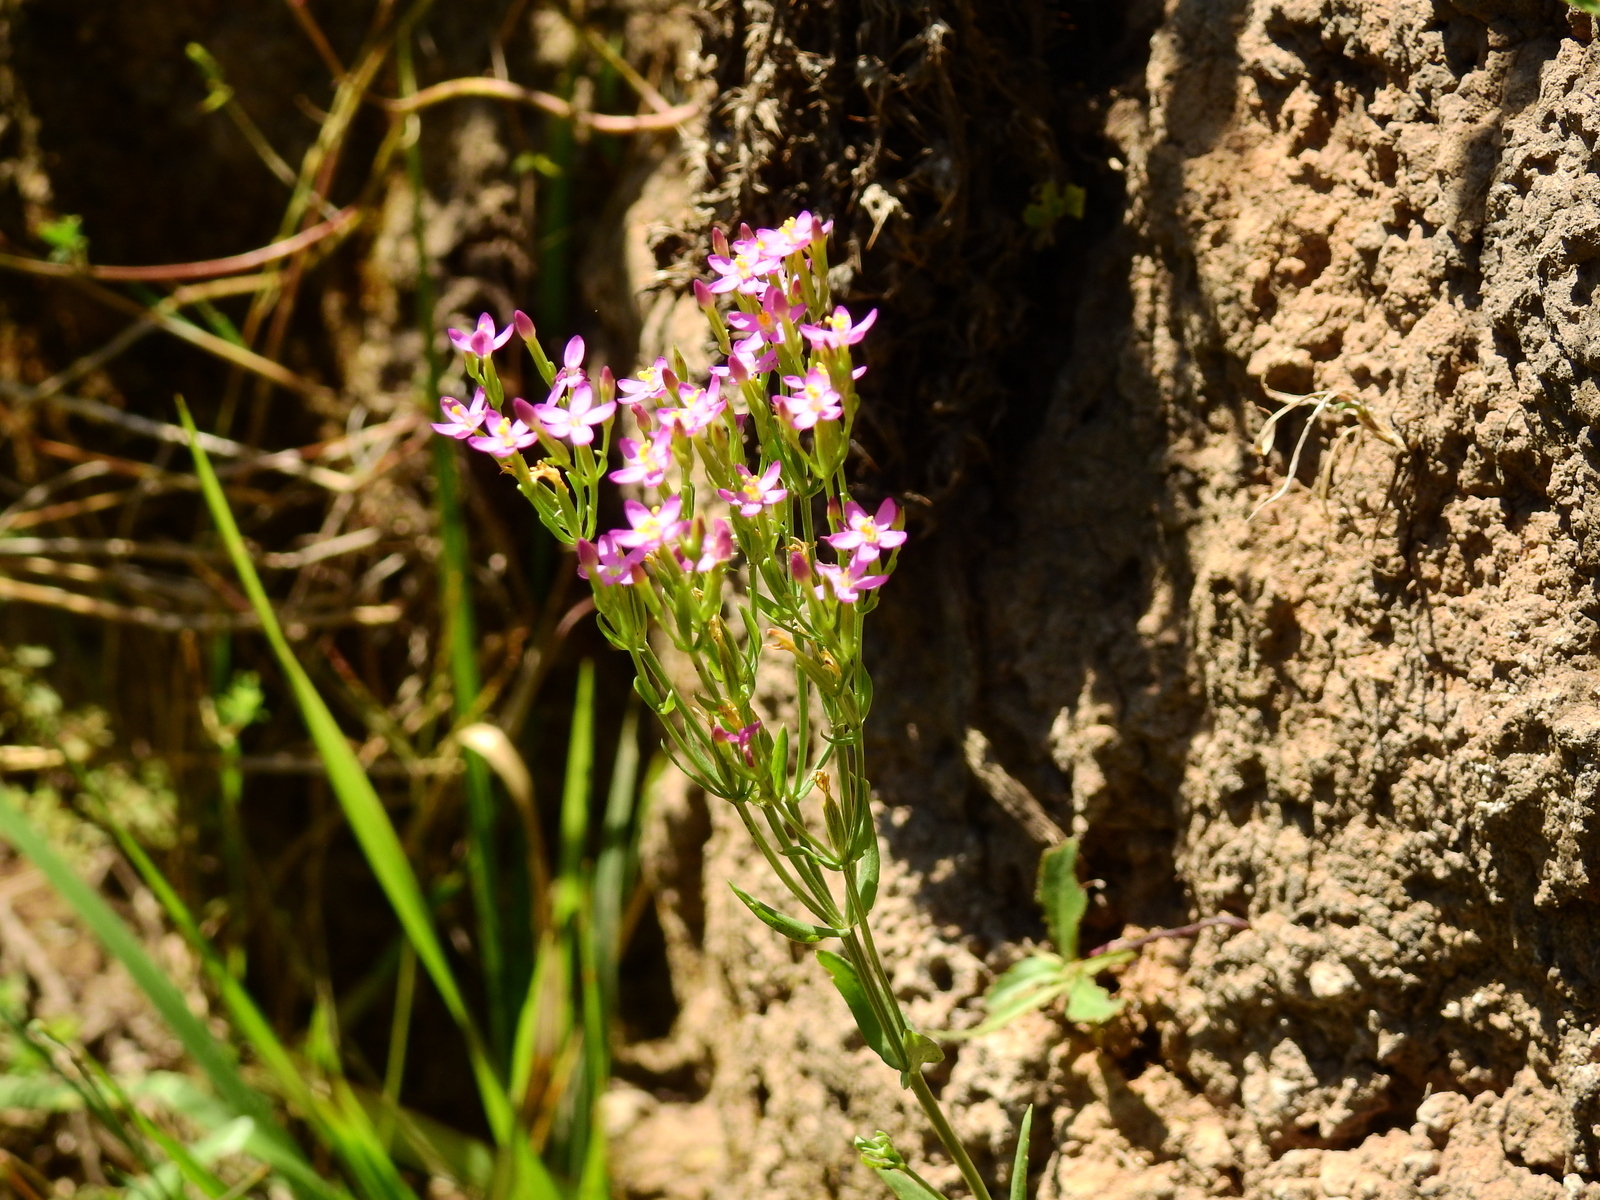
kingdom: Plantae
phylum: Tracheophyta
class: Magnoliopsida
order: Gentianales
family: Gentianaceae
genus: Centaurium
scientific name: Centaurium pulchellum
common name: Lesser centaury
